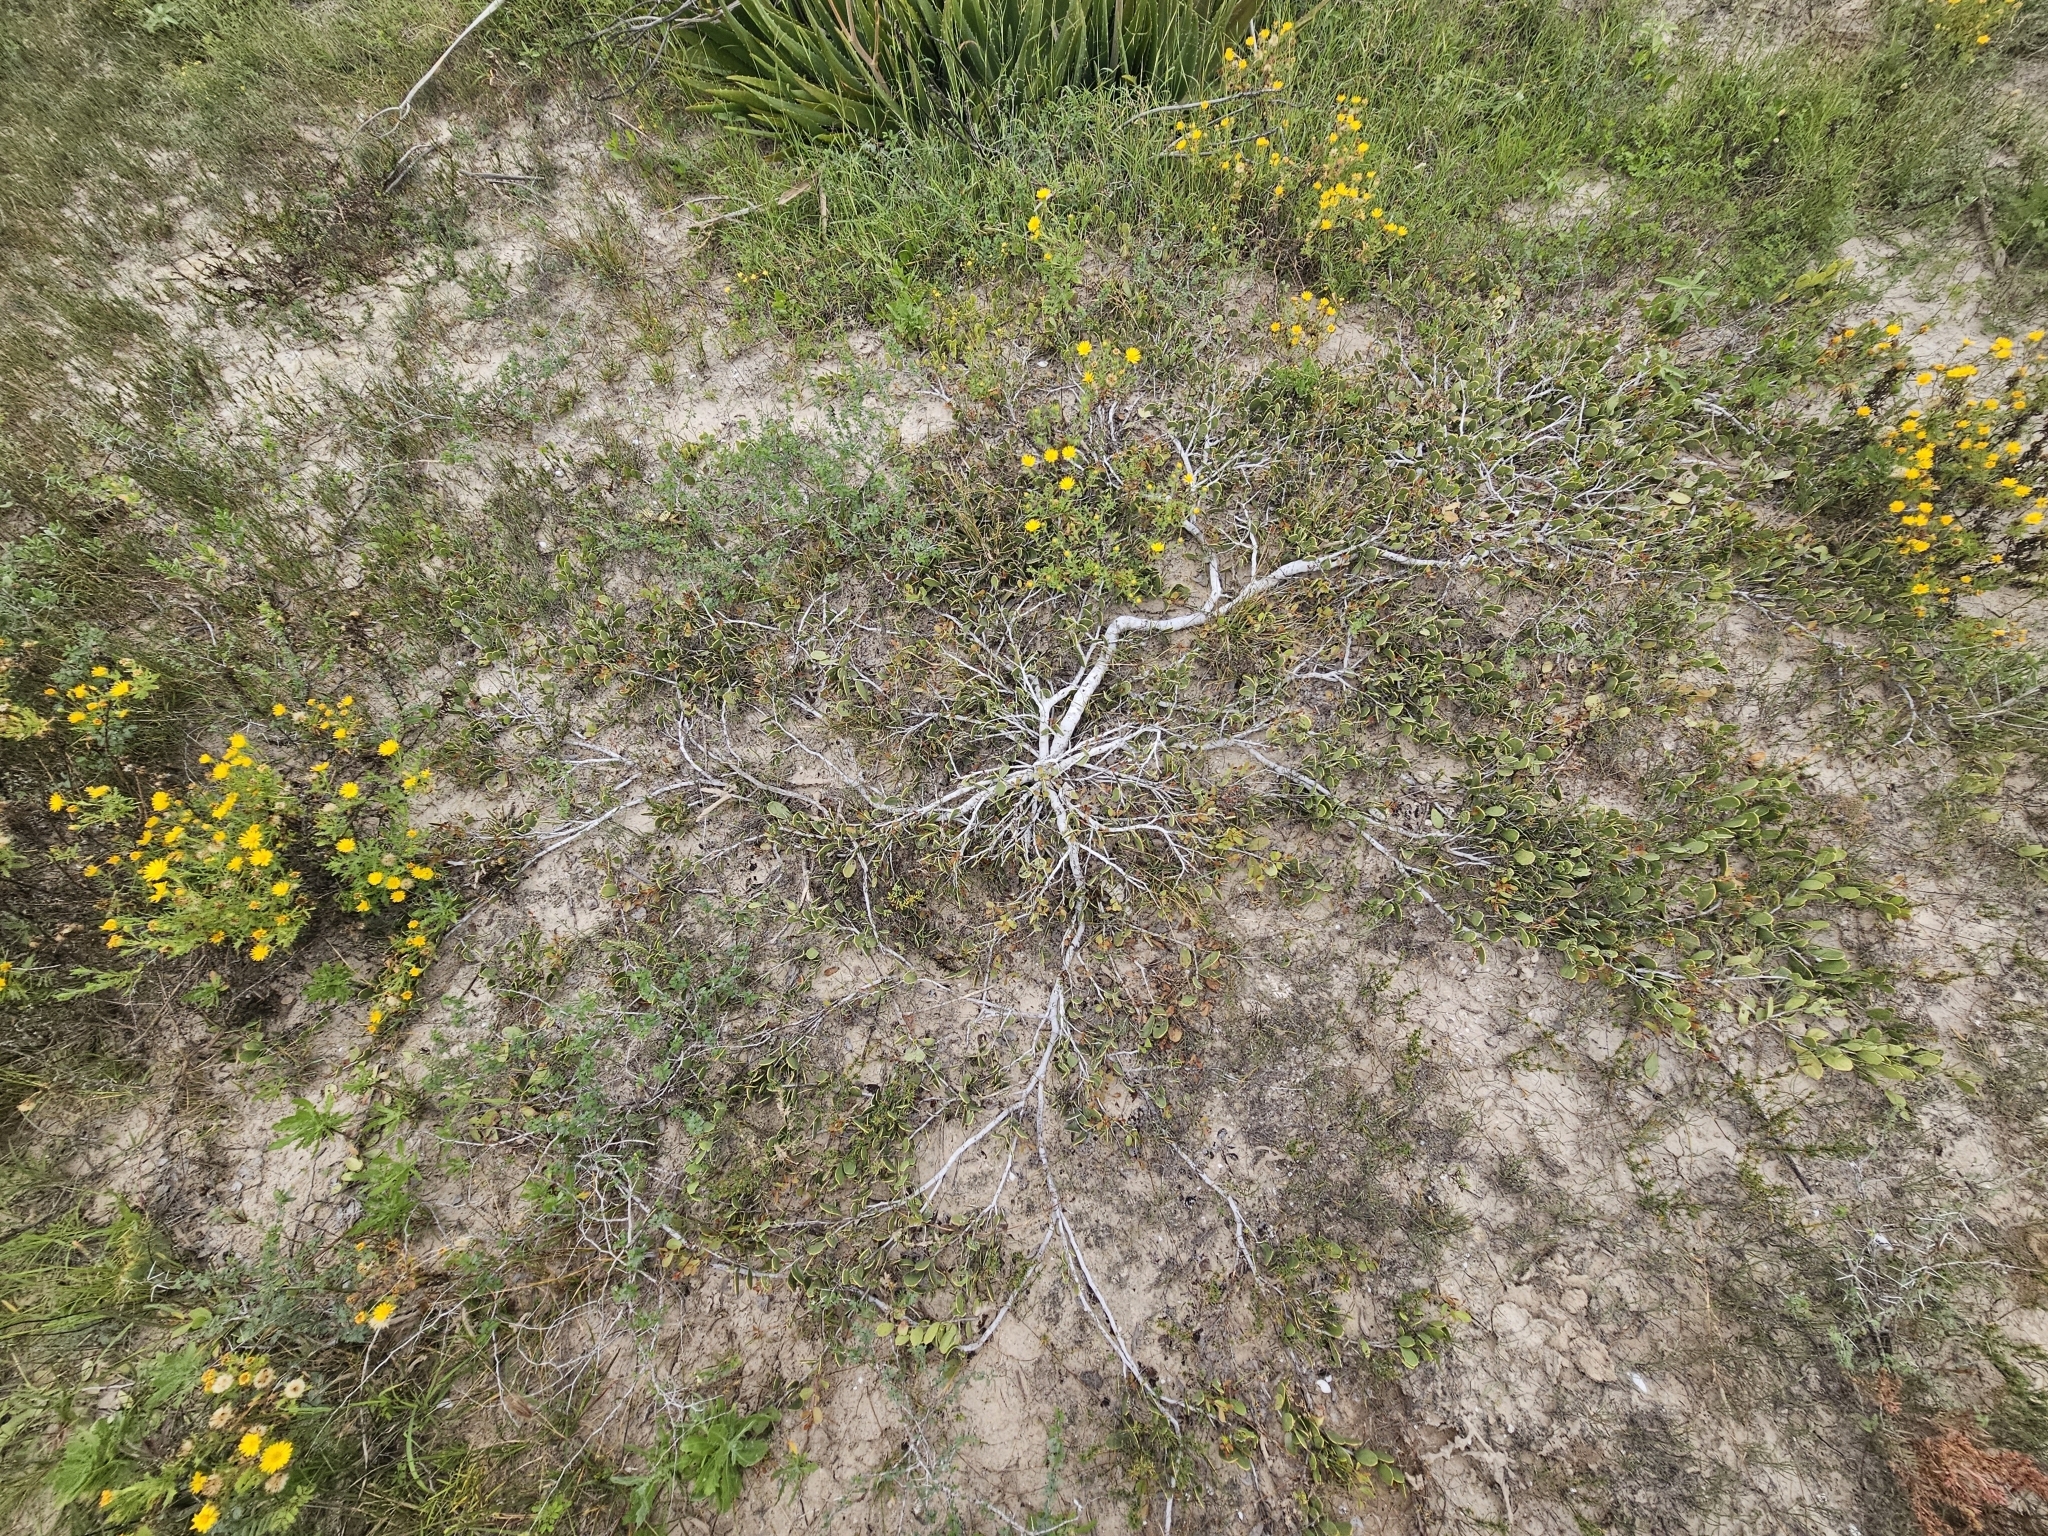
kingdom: Plantae
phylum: Tracheophyta
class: Magnoliopsida
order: Celastrales
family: Celastraceae
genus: Tricerma
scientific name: Tricerma phyllanthoides
